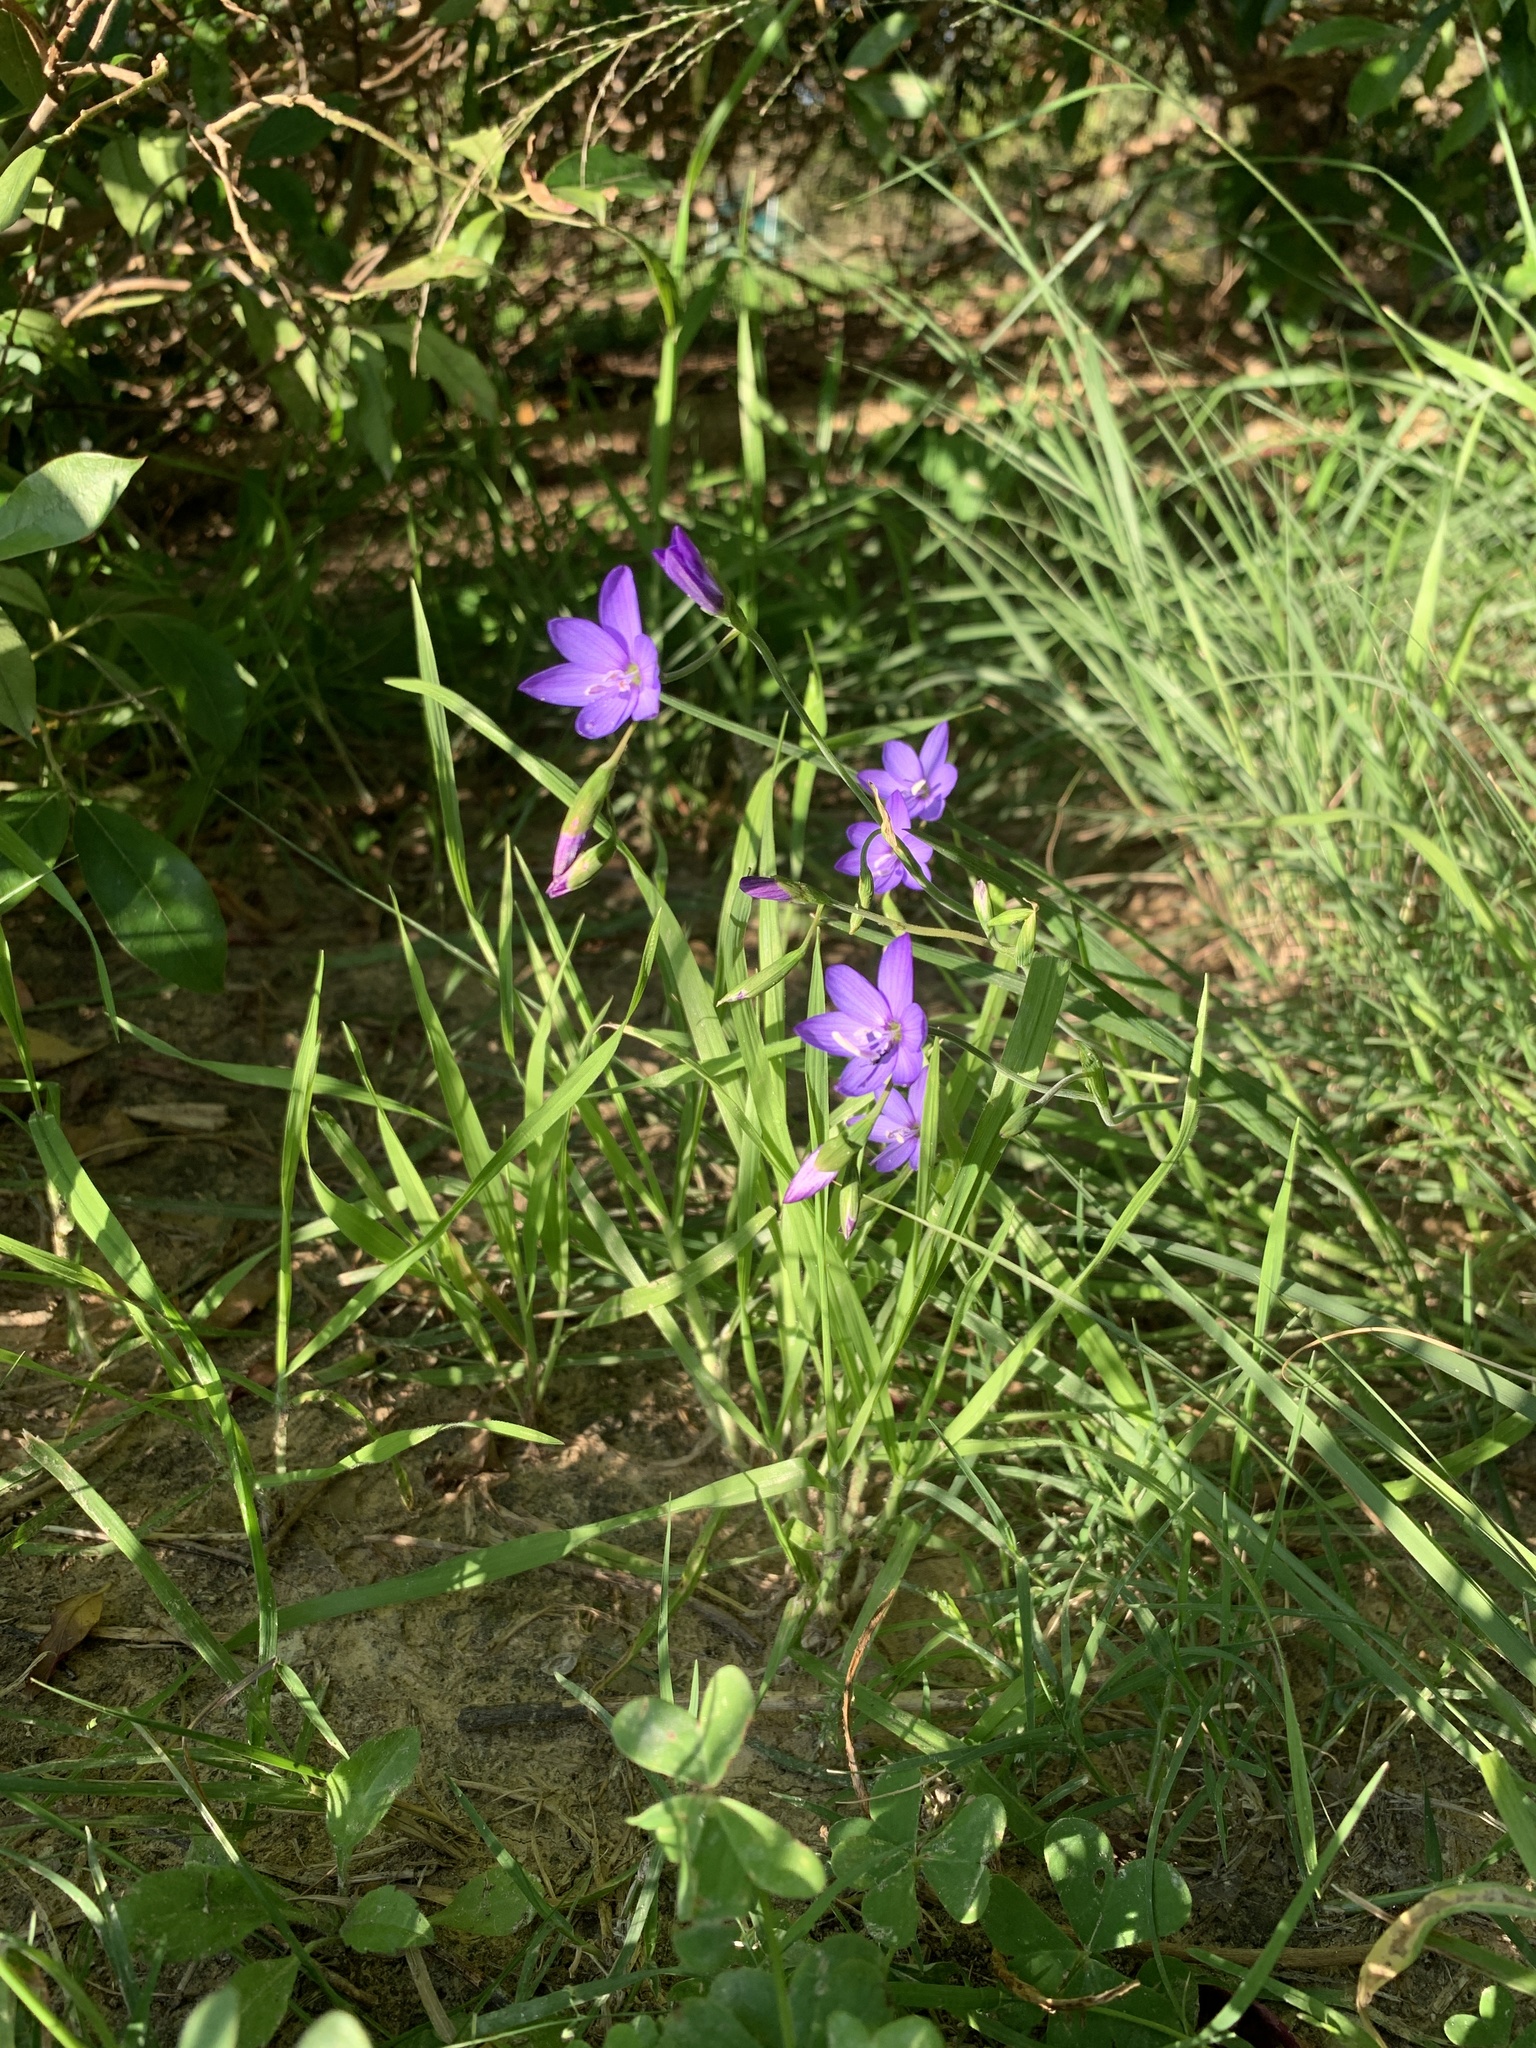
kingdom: Plantae
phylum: Tracheophyta
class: Liliopsida
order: Asparagales
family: Iridaceae
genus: Geissorhiza
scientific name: Geissorhiza aspera
